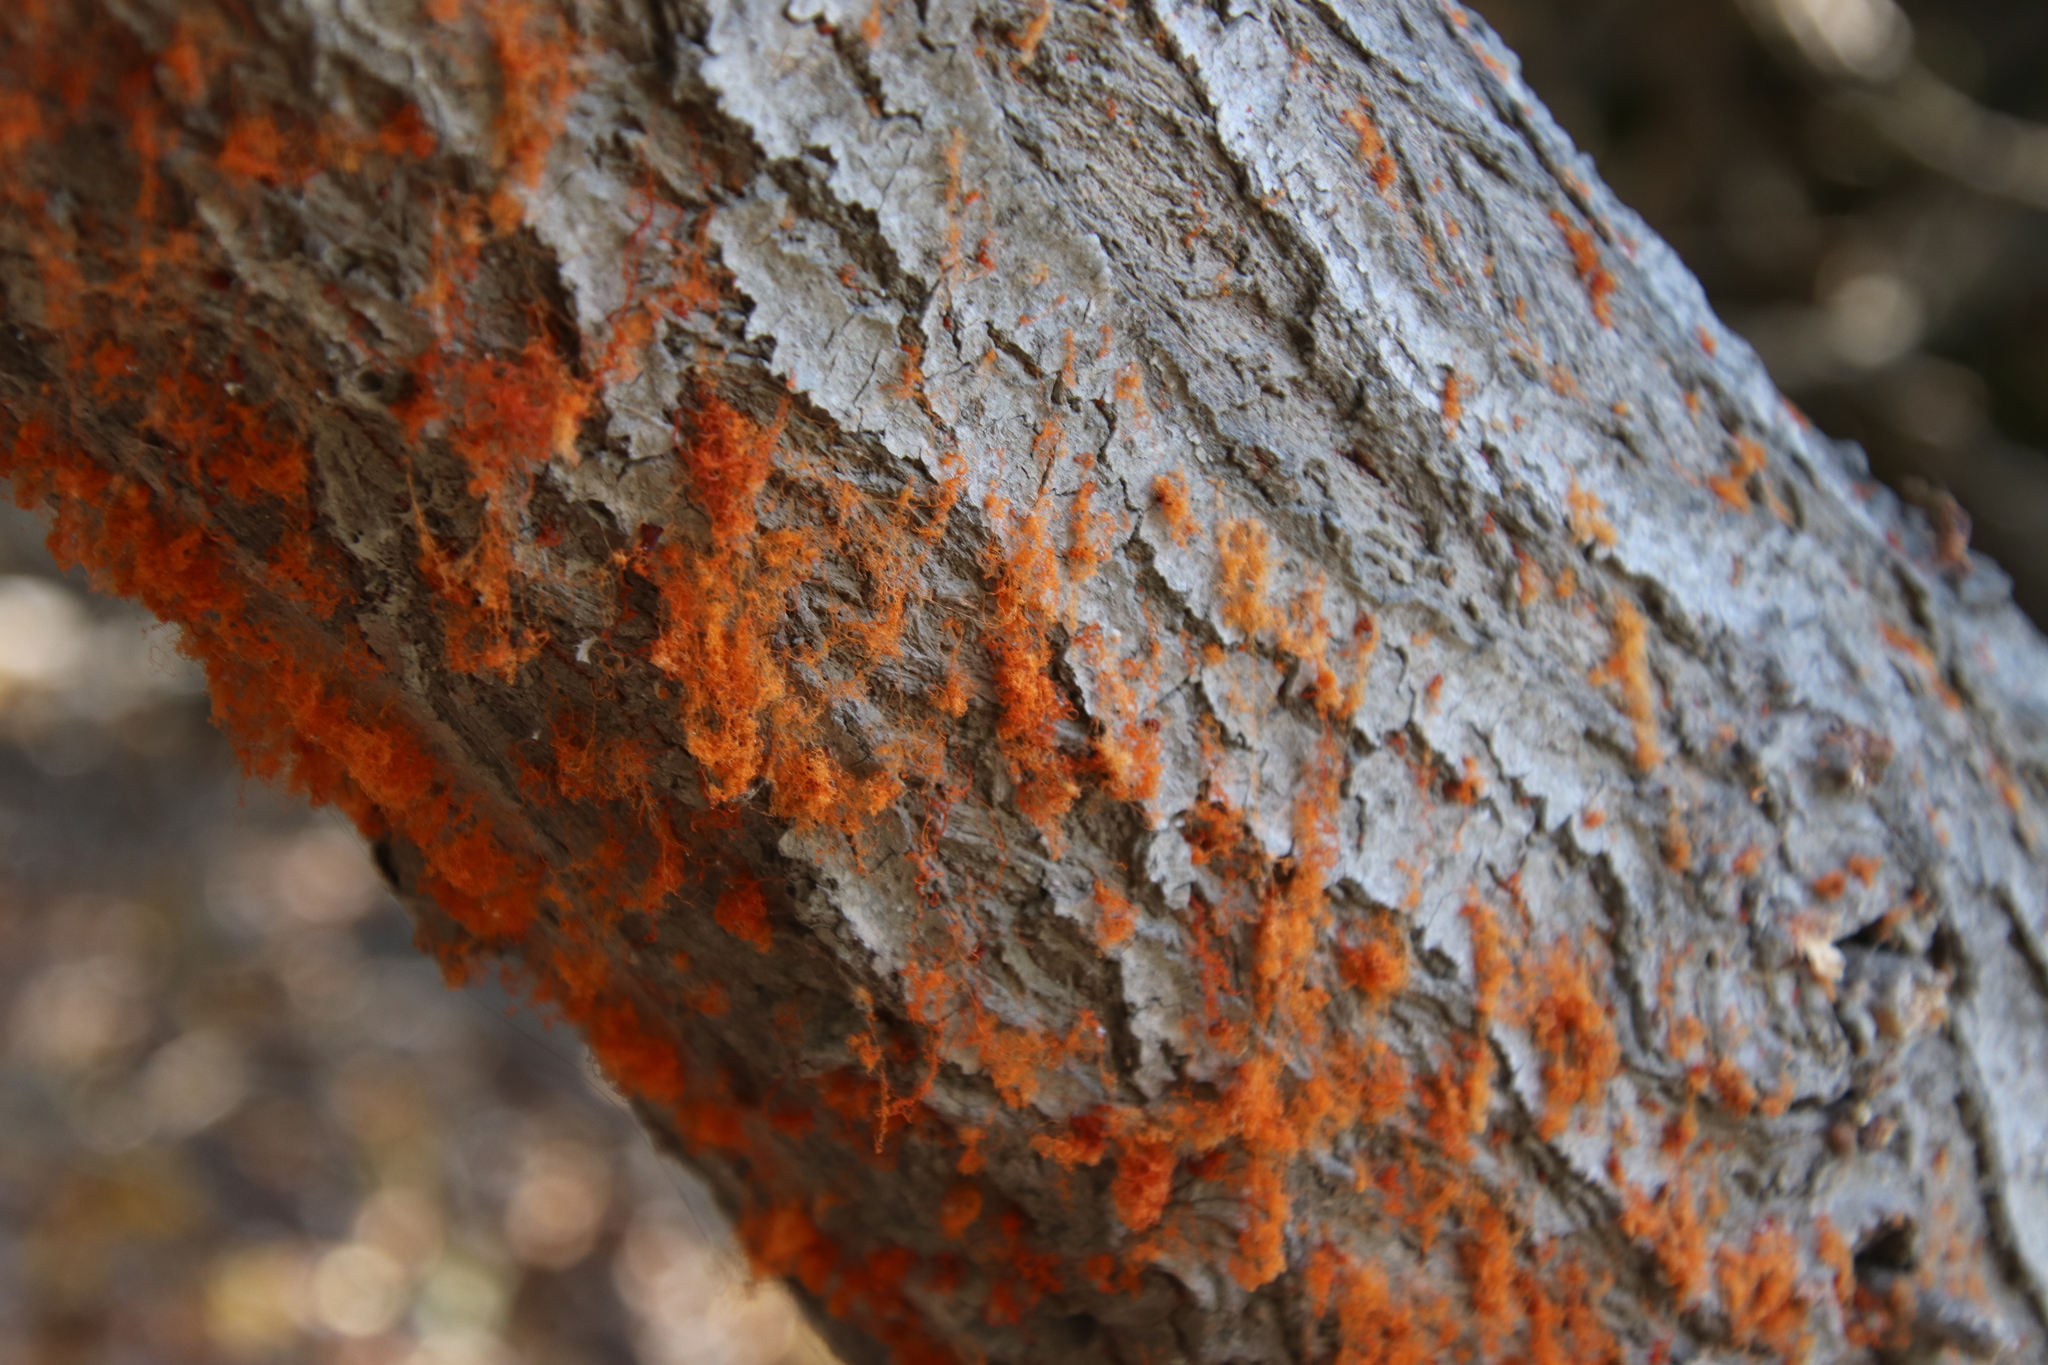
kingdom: Plantae
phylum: Tracheophyta
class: Magnoliopsida
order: Malpighiales
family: Salicaceae
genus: Salix
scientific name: Salix lasiolepis
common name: Arroyo willow
